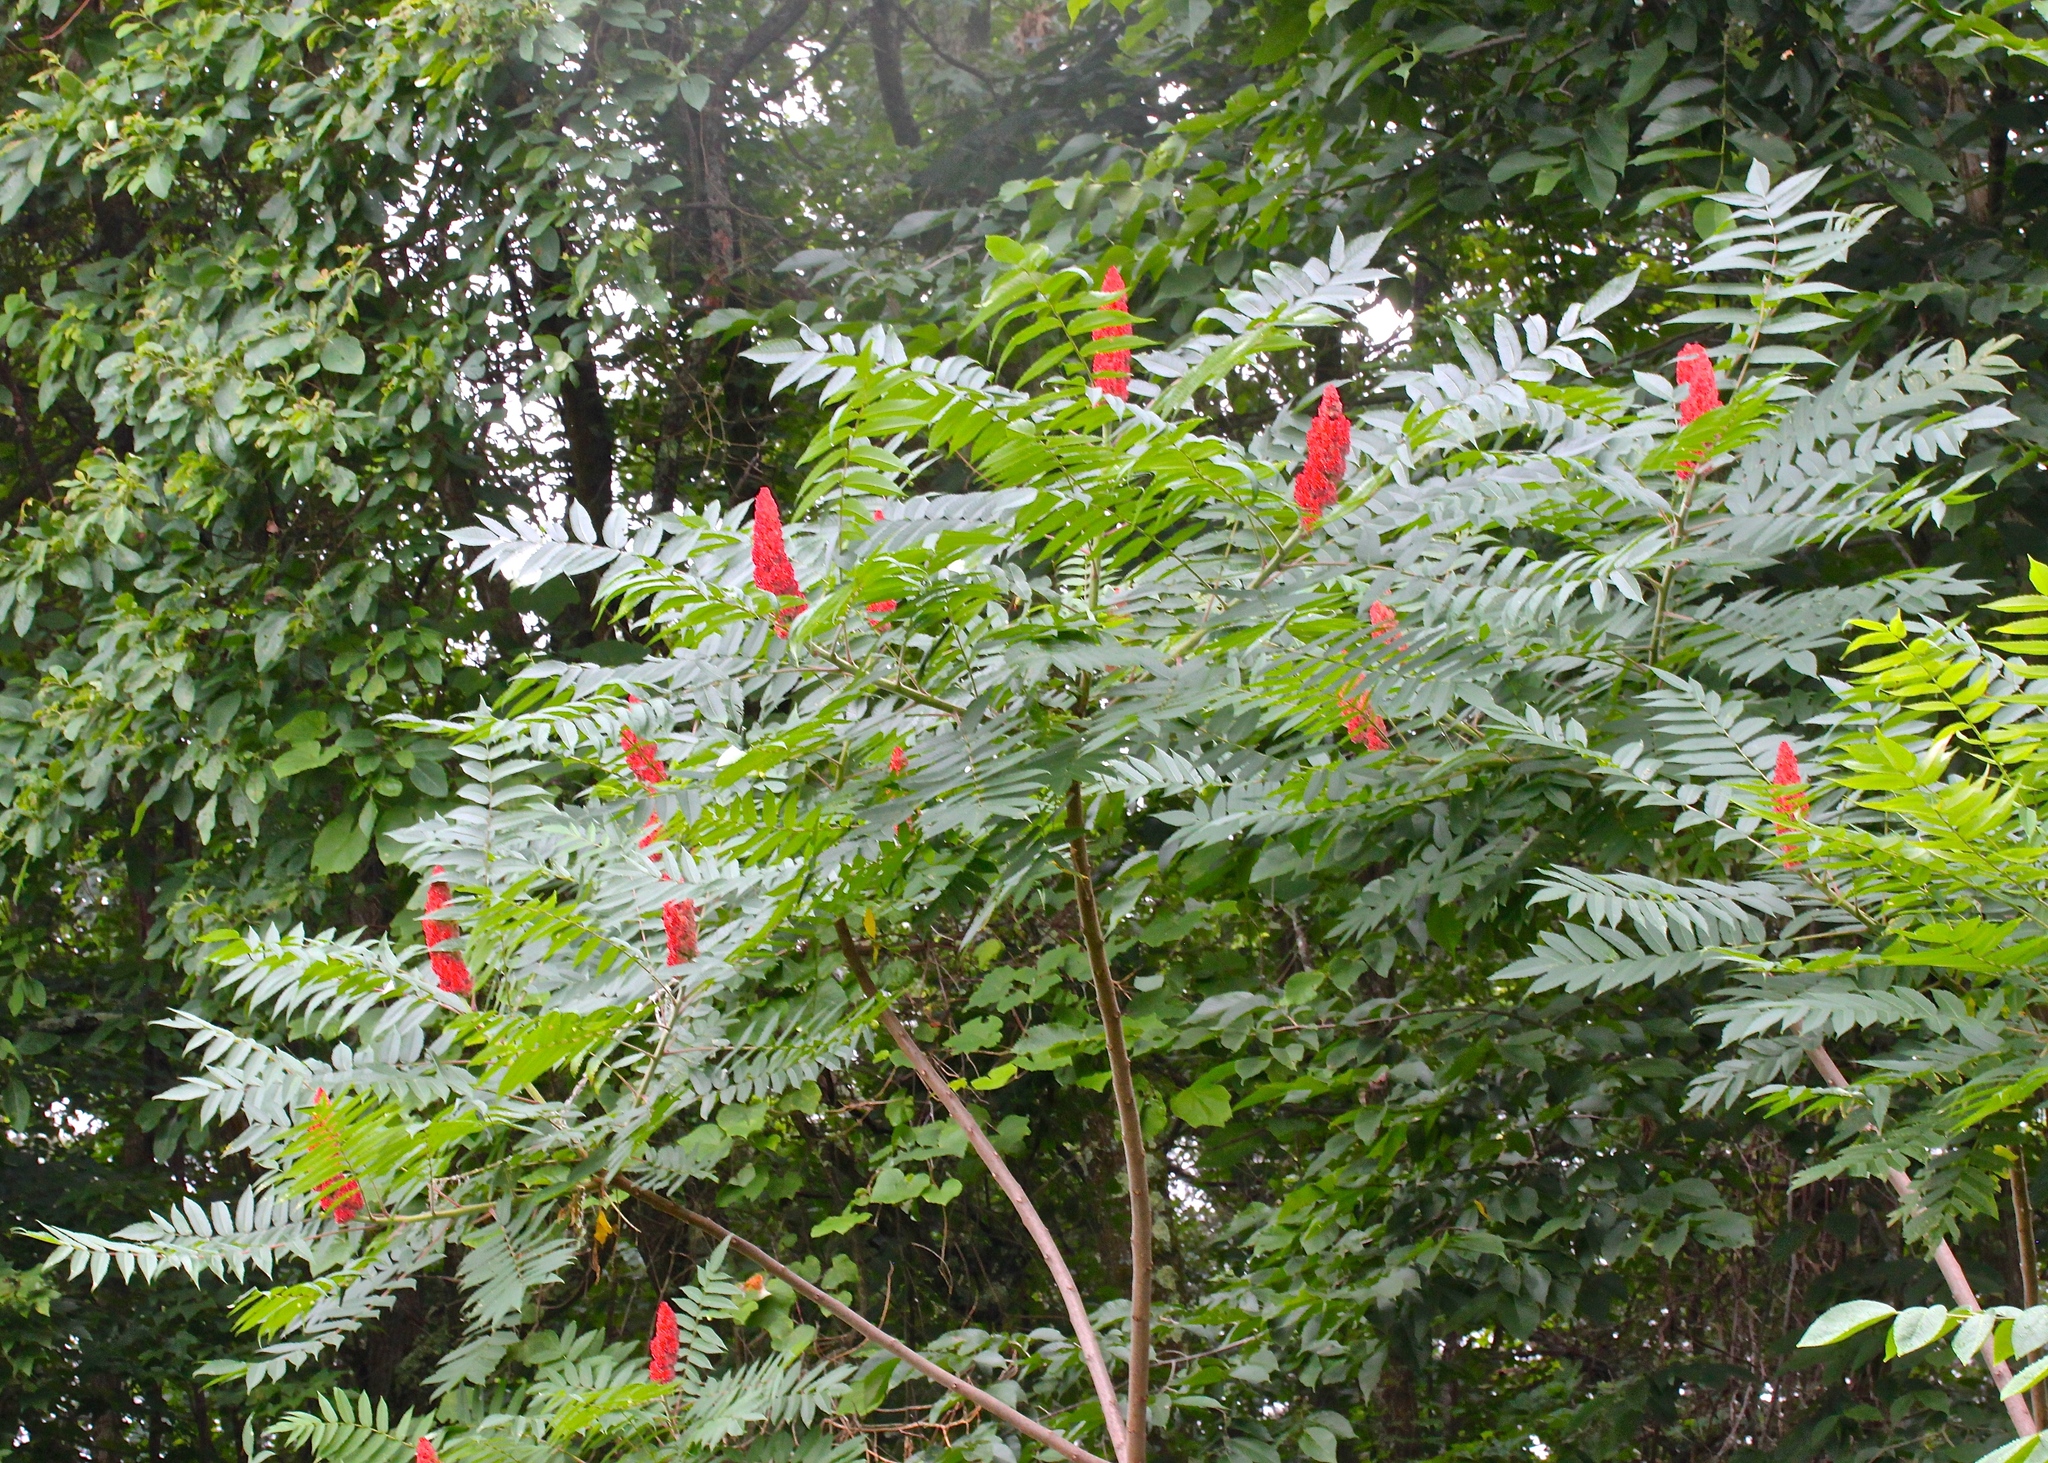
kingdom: Plantae
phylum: Tracheophyta
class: Magnoliopsida
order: Sapindales
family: Anacardiaceae
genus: Rhus
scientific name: Rhus typhina
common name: Staghorn sumac
